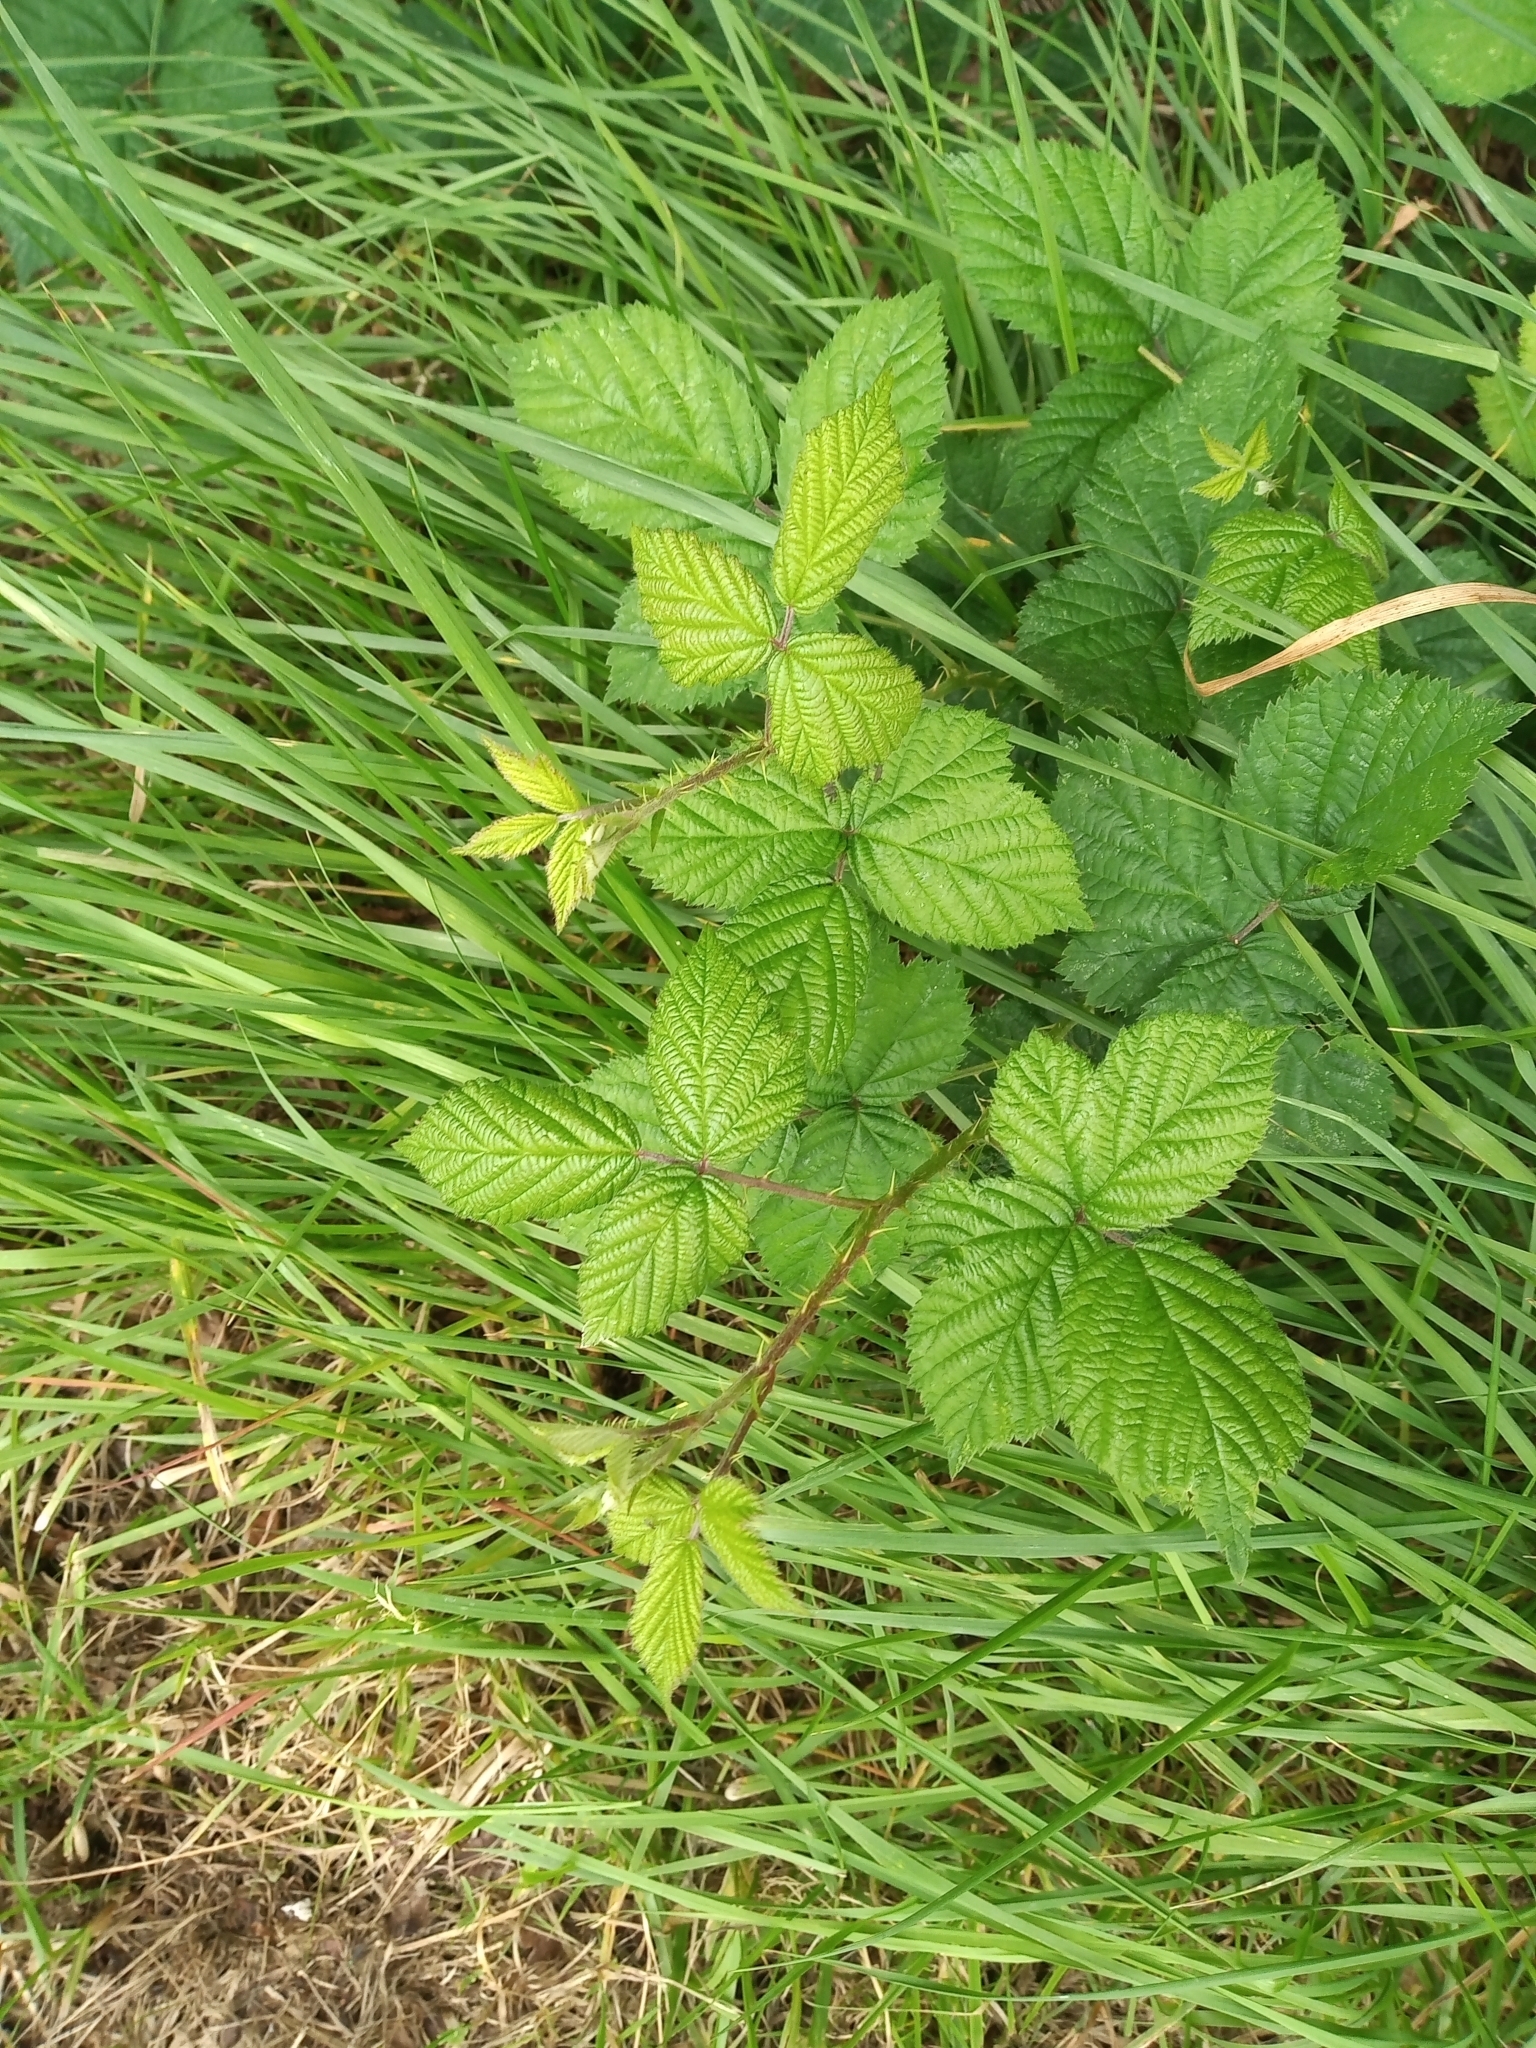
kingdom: Plantae
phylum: Tracheophyta
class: Magnoliopsida
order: Rosales
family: Rosaceae
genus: Rubus
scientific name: Rubus horrefactus
